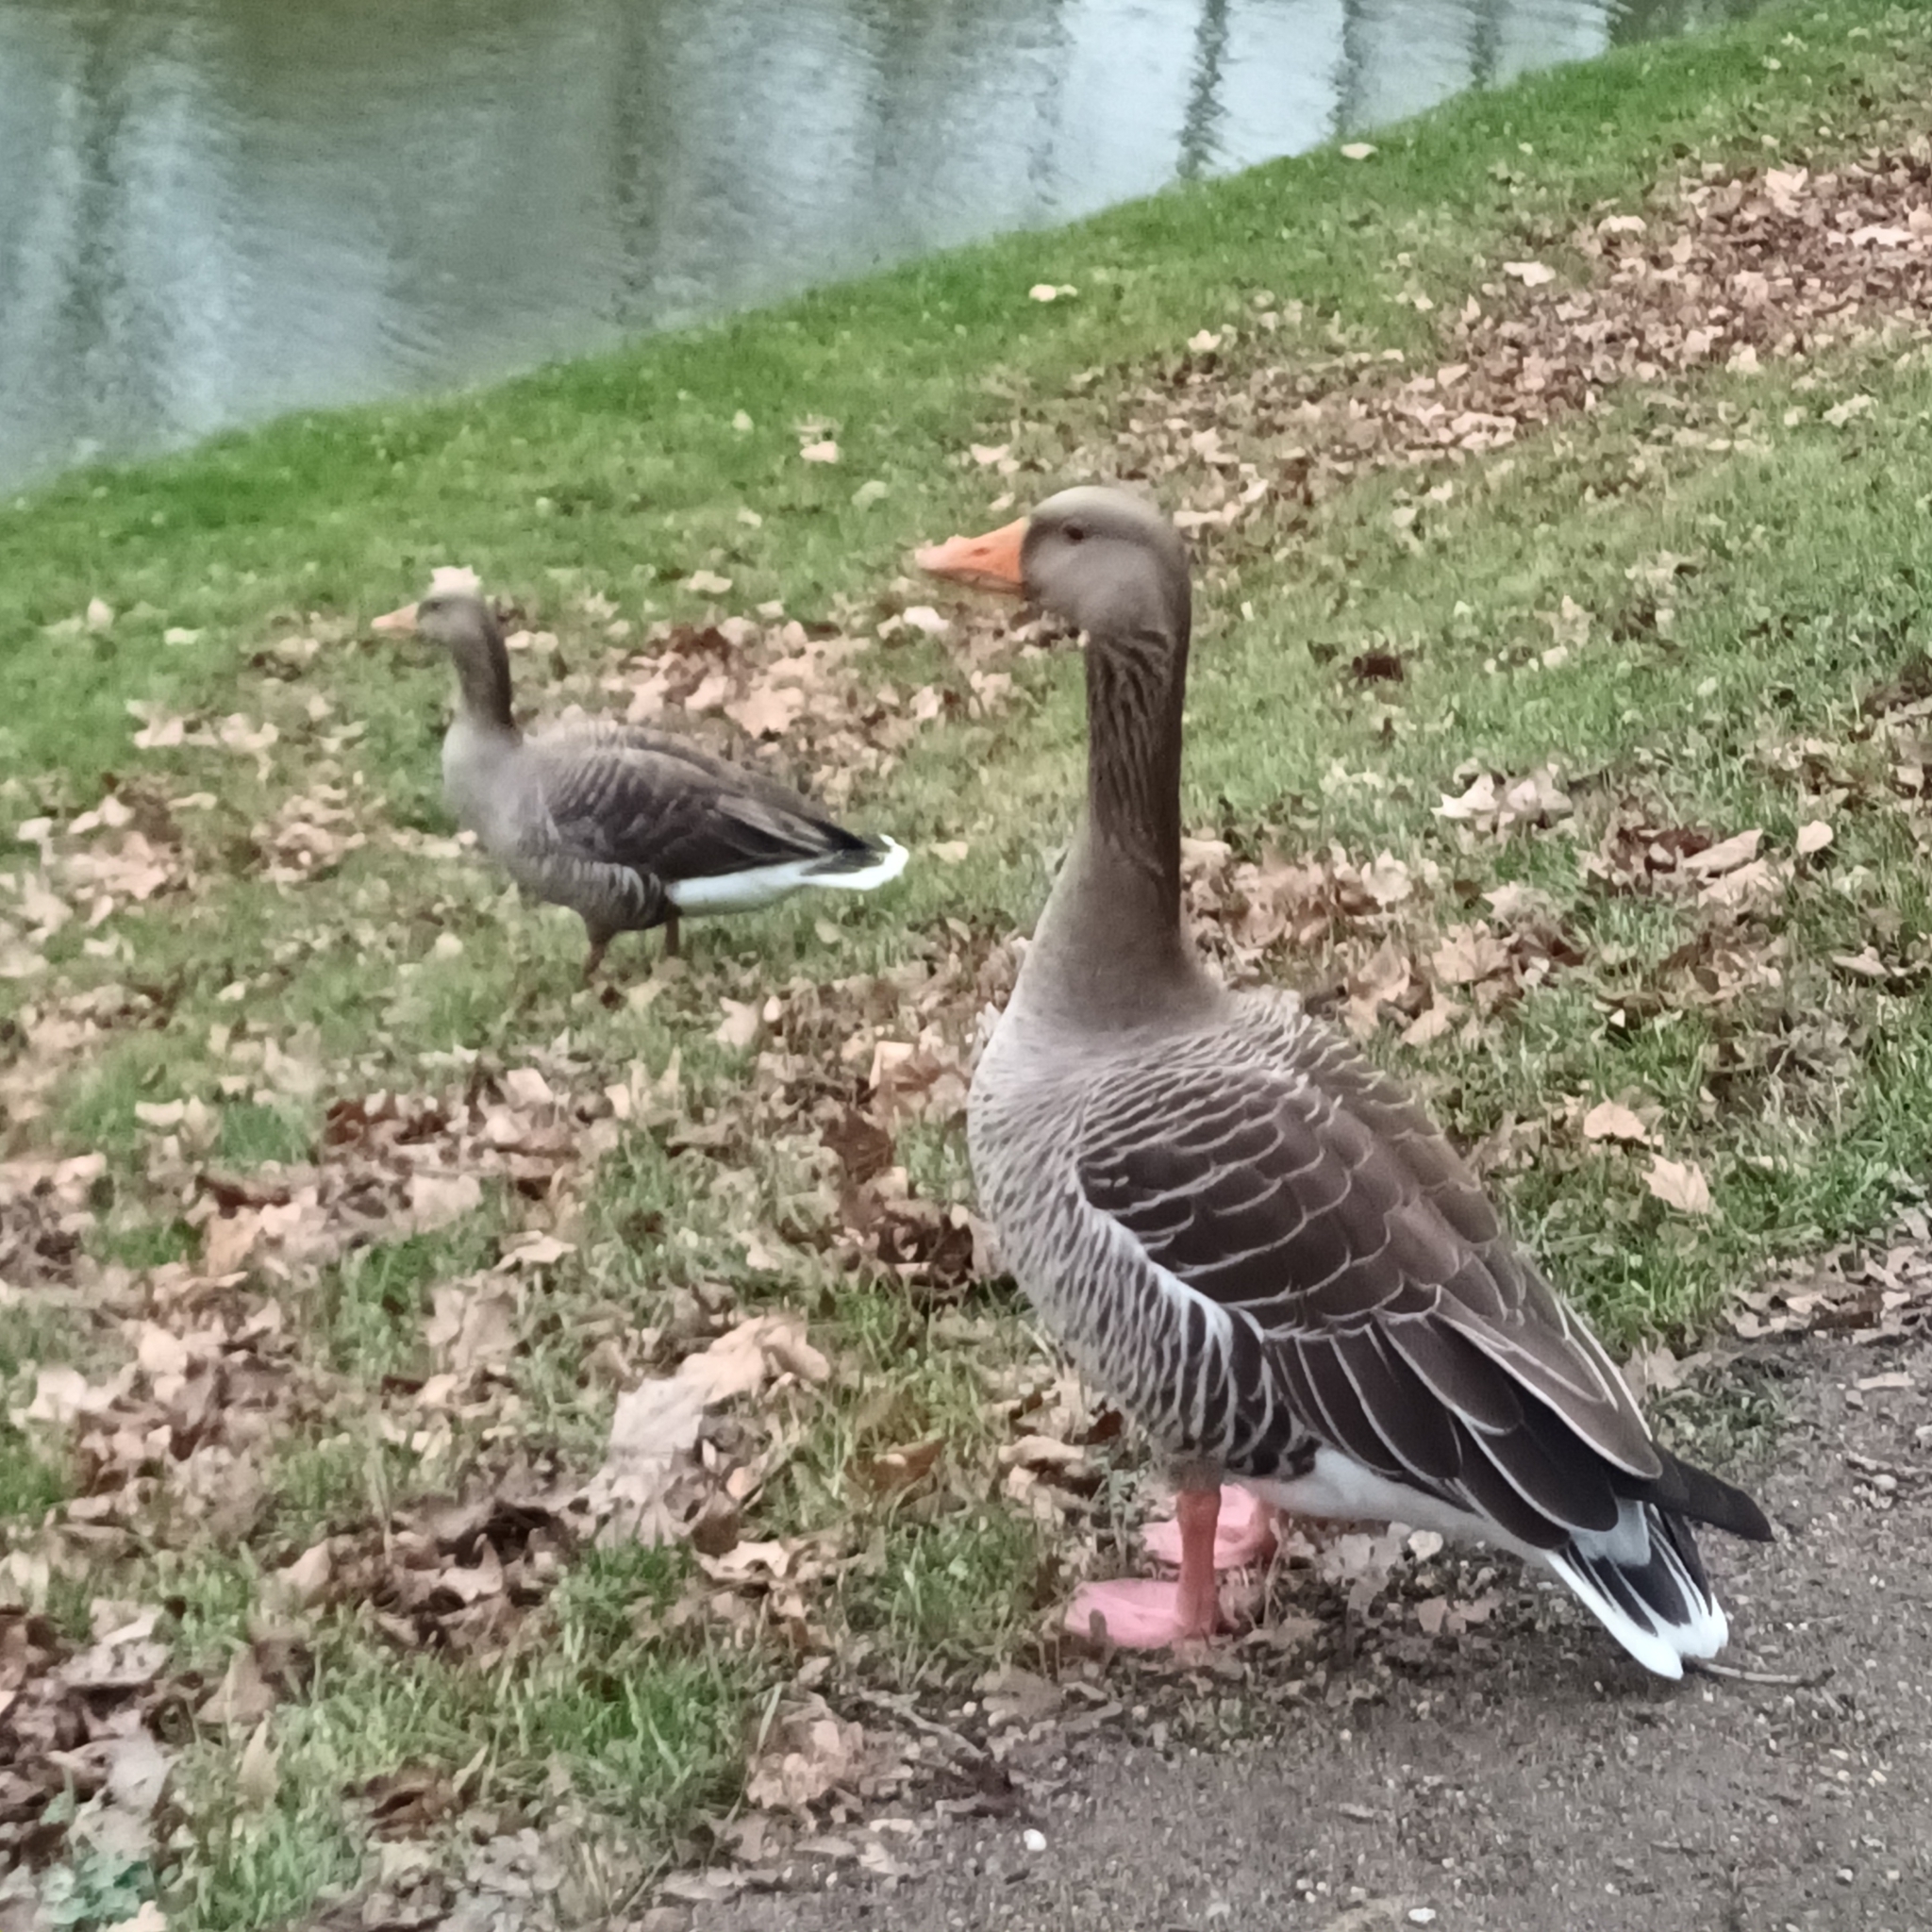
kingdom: Animalia
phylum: Chordata
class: Aves
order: Anseriformes
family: Anatidae
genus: Anser
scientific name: Anser anser
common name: Greylag goose
